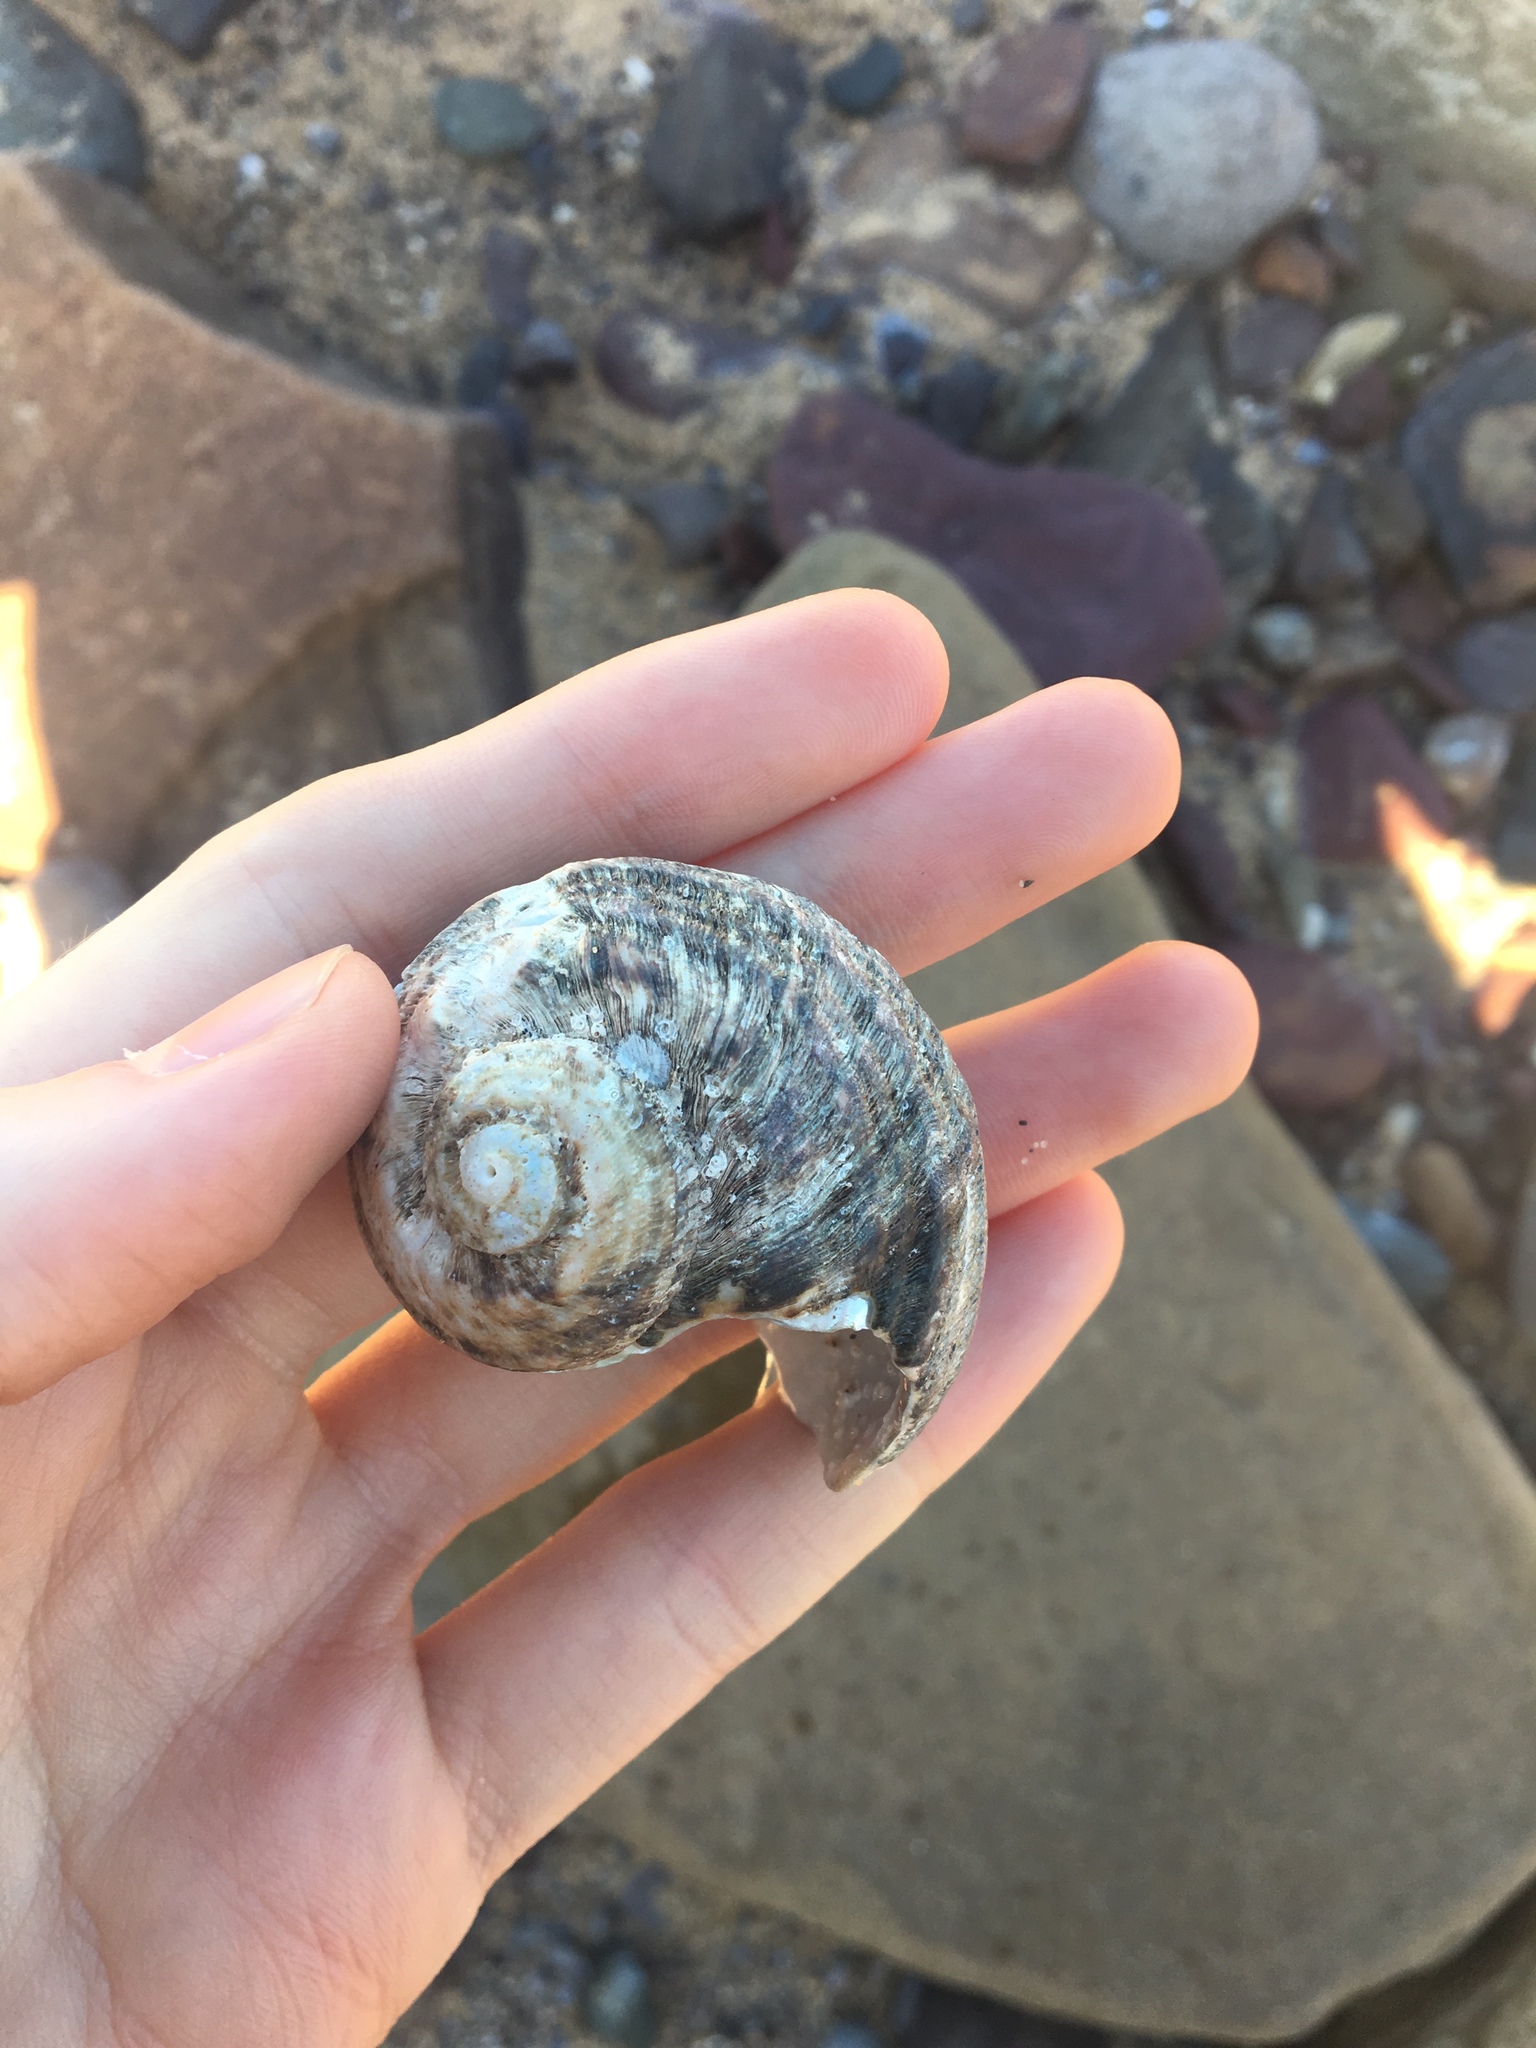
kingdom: Animalia
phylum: Mollusca
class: Gastropoda
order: Trochida
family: Turbinidae
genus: Lunella
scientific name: Lunella torquata
